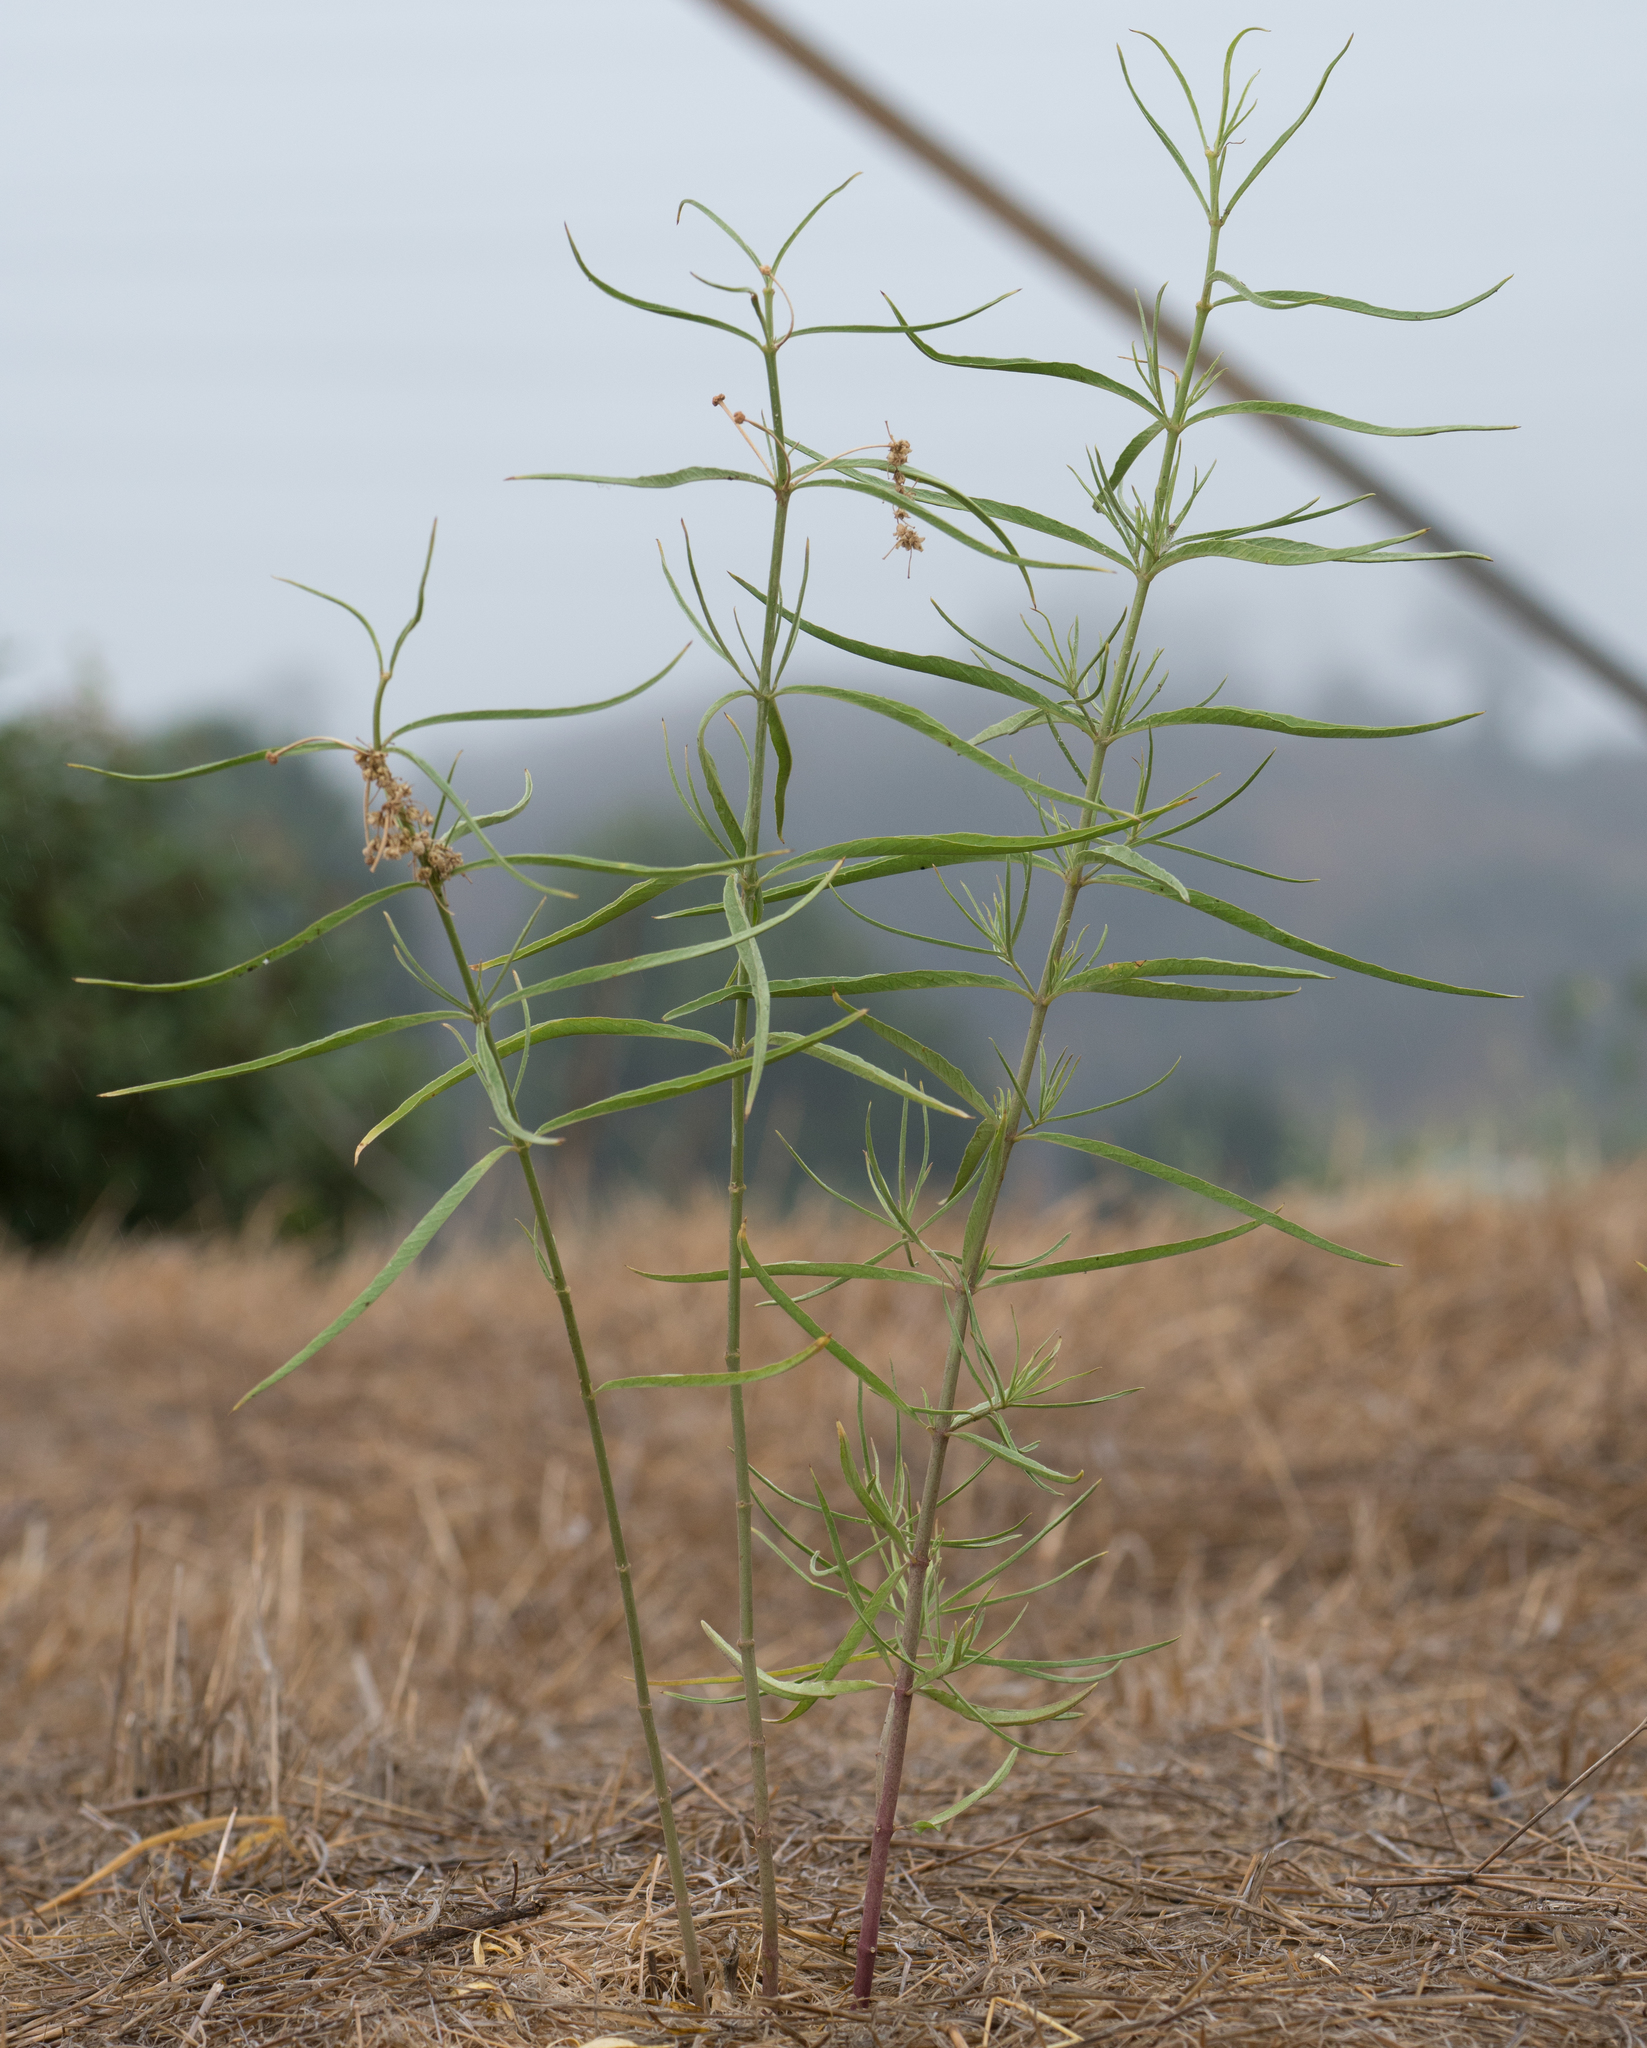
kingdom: Plantae
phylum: Tracheophyta
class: Magnoliopsida
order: Gentianales
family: Apocynaceae
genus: Asclepias
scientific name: Asclepias fascicularis
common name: Mexican milkweed
